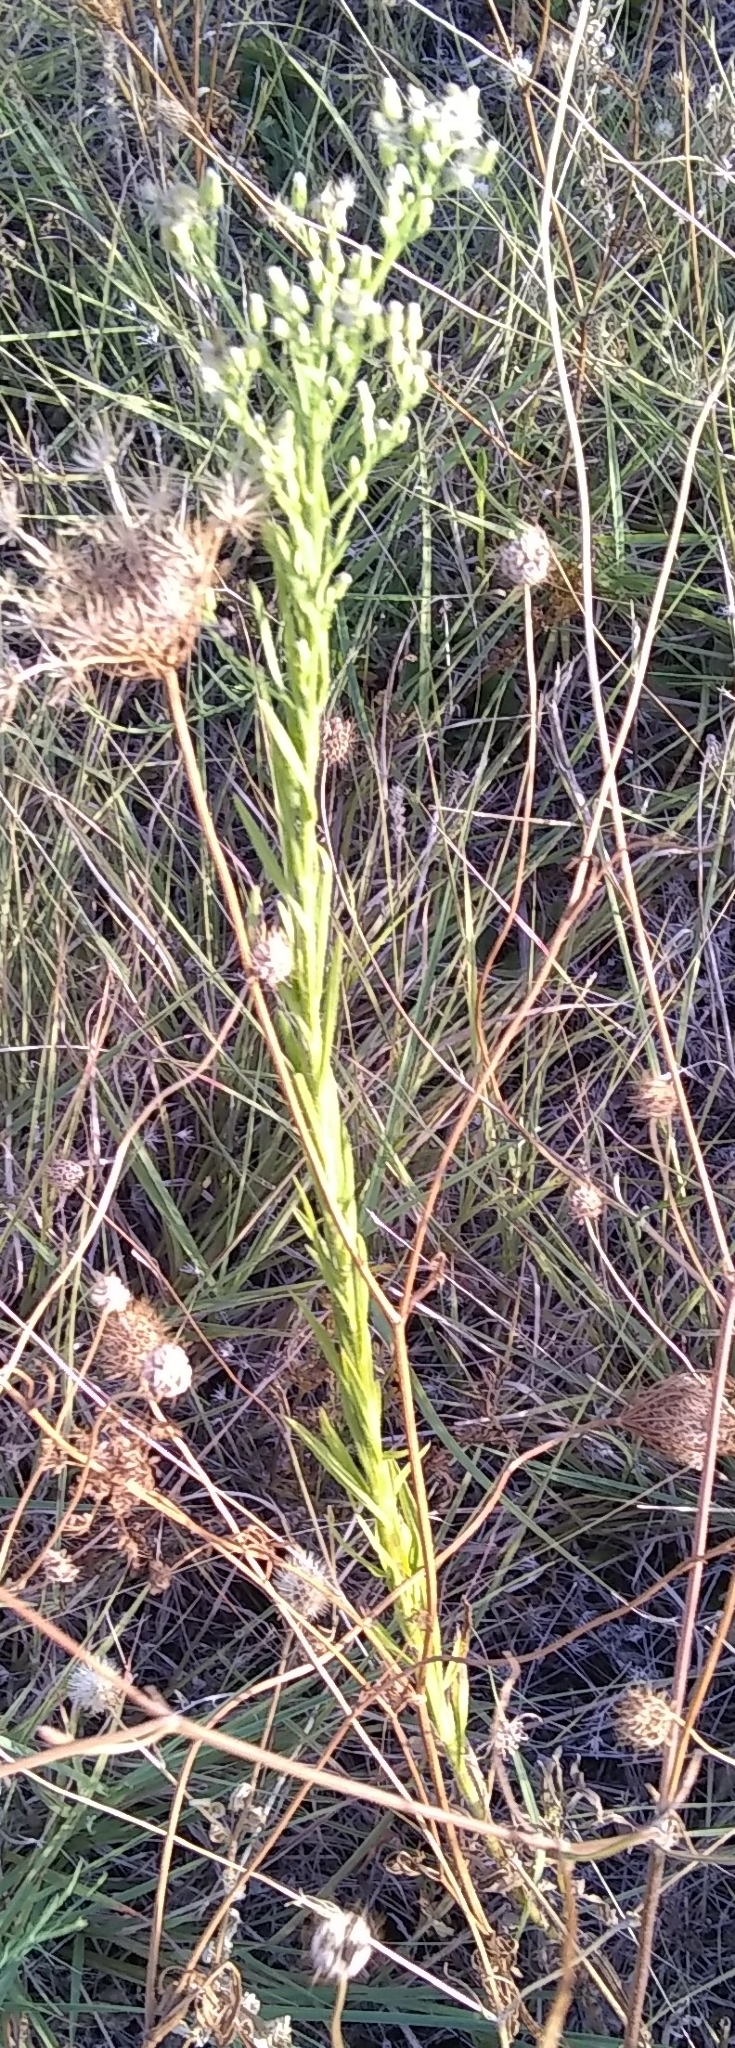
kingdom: Plantae
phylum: Tracheophyta
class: Magnoliopsida
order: Asterales
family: Asteraceae
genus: Erigeron
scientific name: Erigeron canadensis
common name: Canadian fleabane
